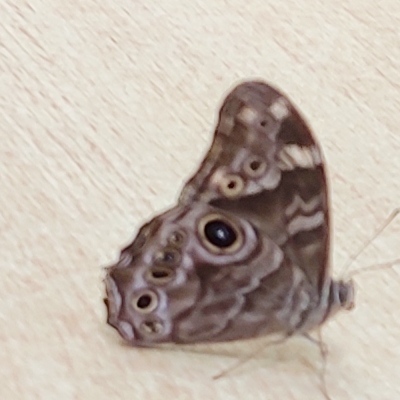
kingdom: Animalia
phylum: Arthropoda
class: Insecta
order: Lepidoptera
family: Nymphalidae
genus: Lethe
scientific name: Lethe rohria
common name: Common treebrown
